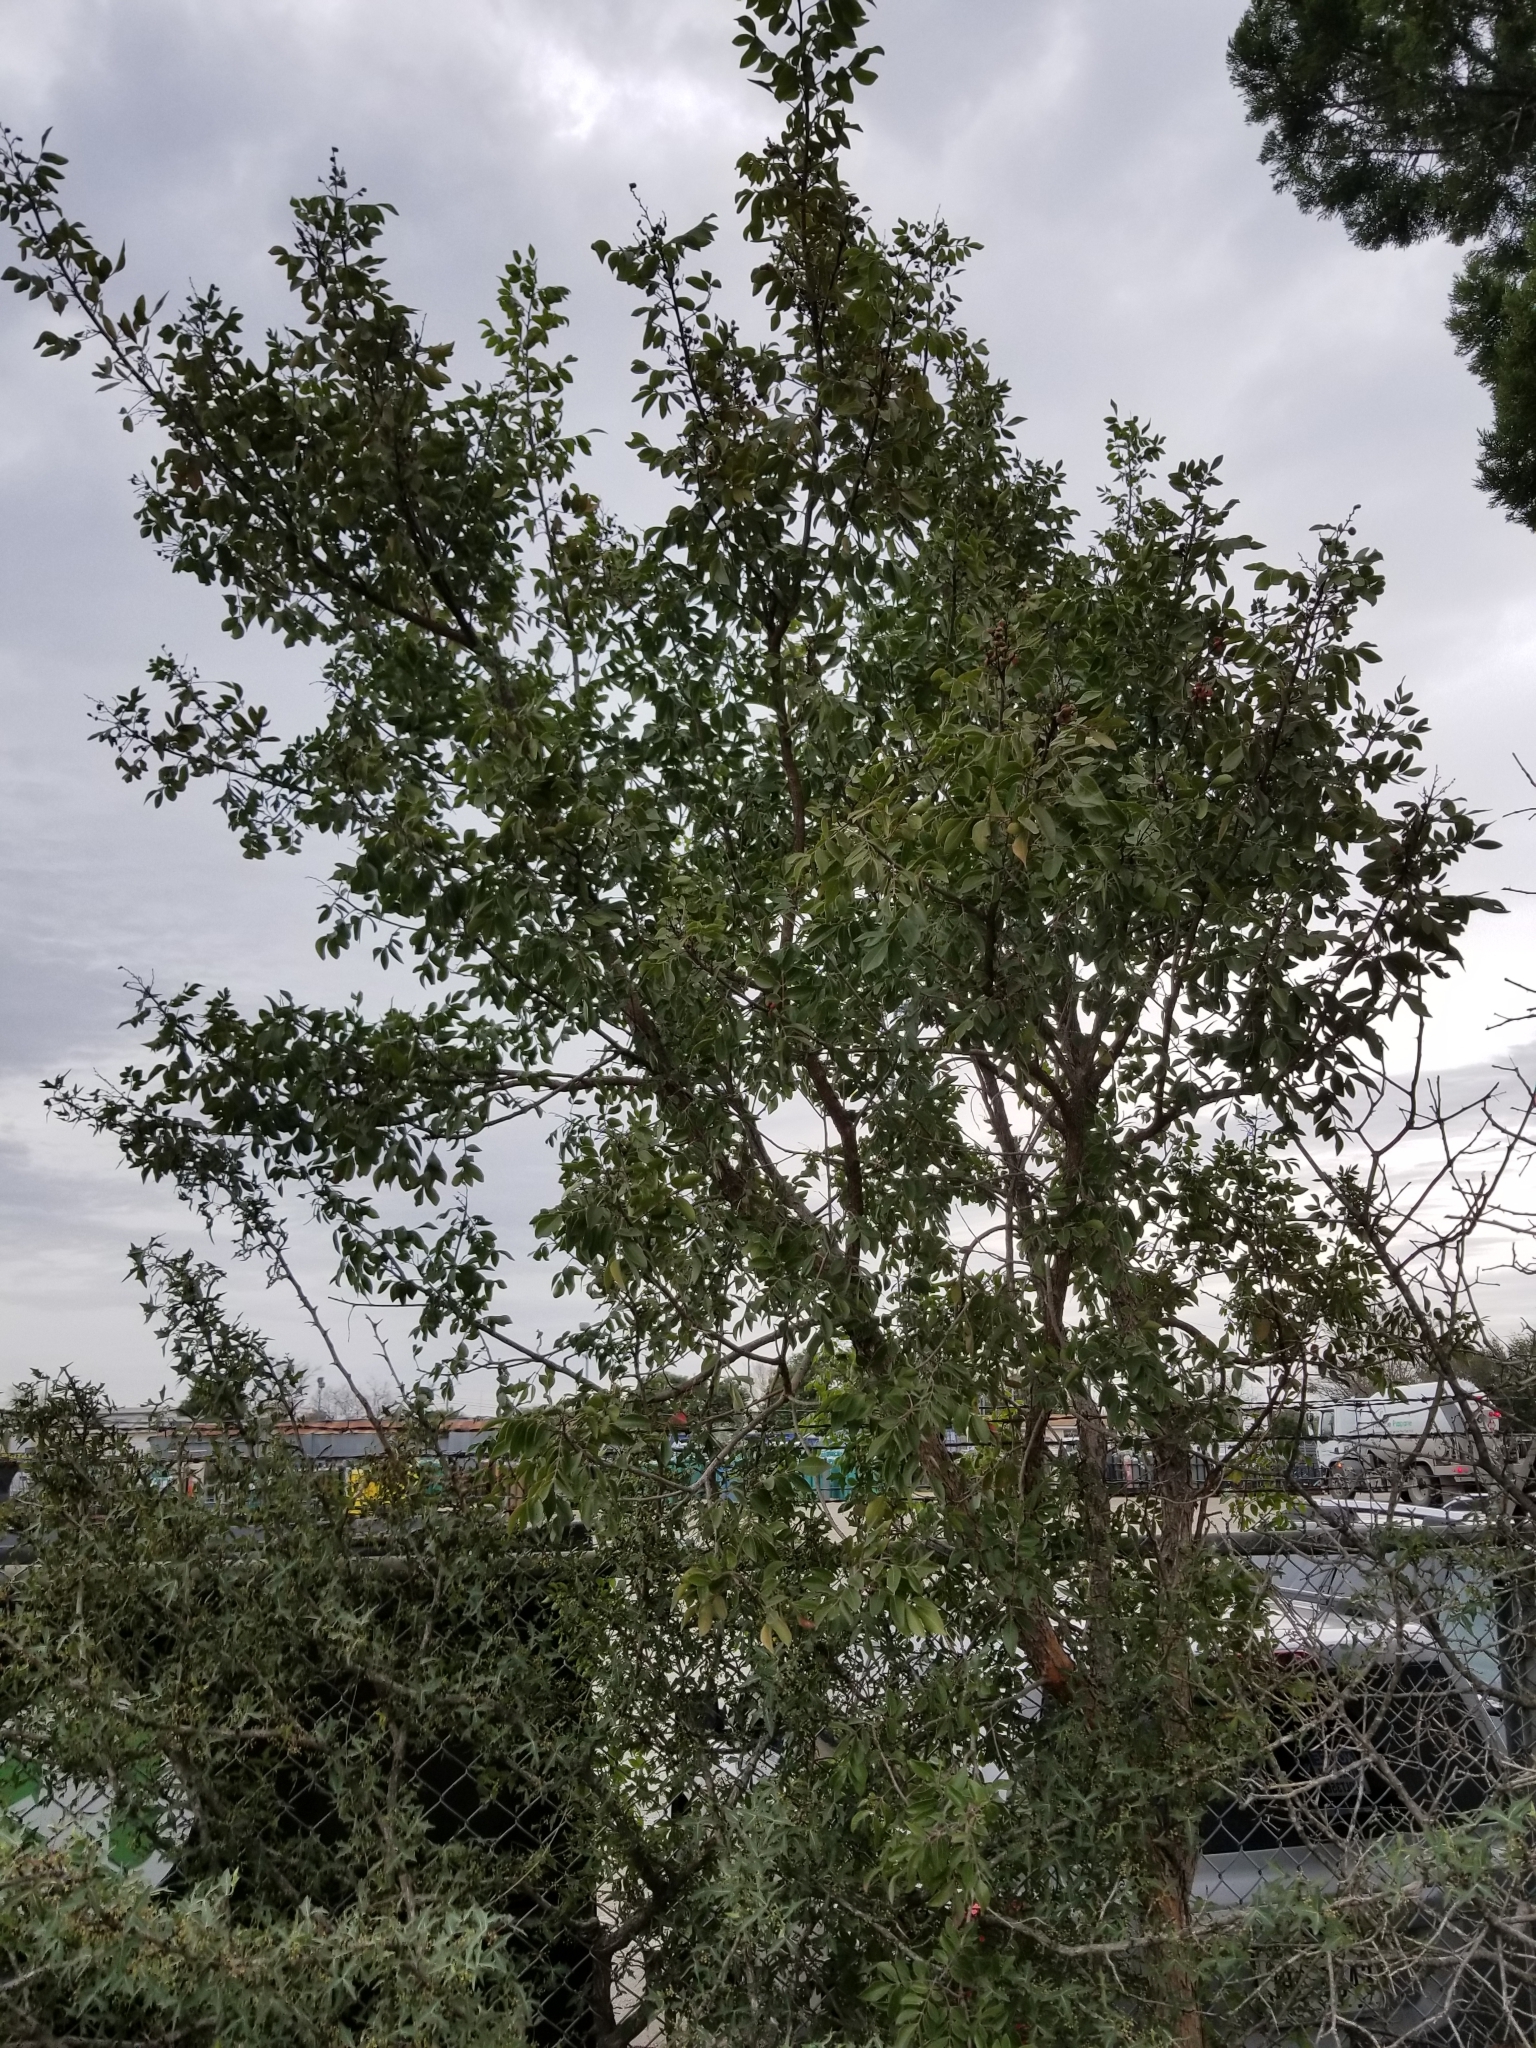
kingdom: Plantae
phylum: Tracheophyta
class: Magnoliopsida
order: Sapindales
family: Anacardiaceae
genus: Rhus
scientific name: Rhus virens
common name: Evergreen sumac
